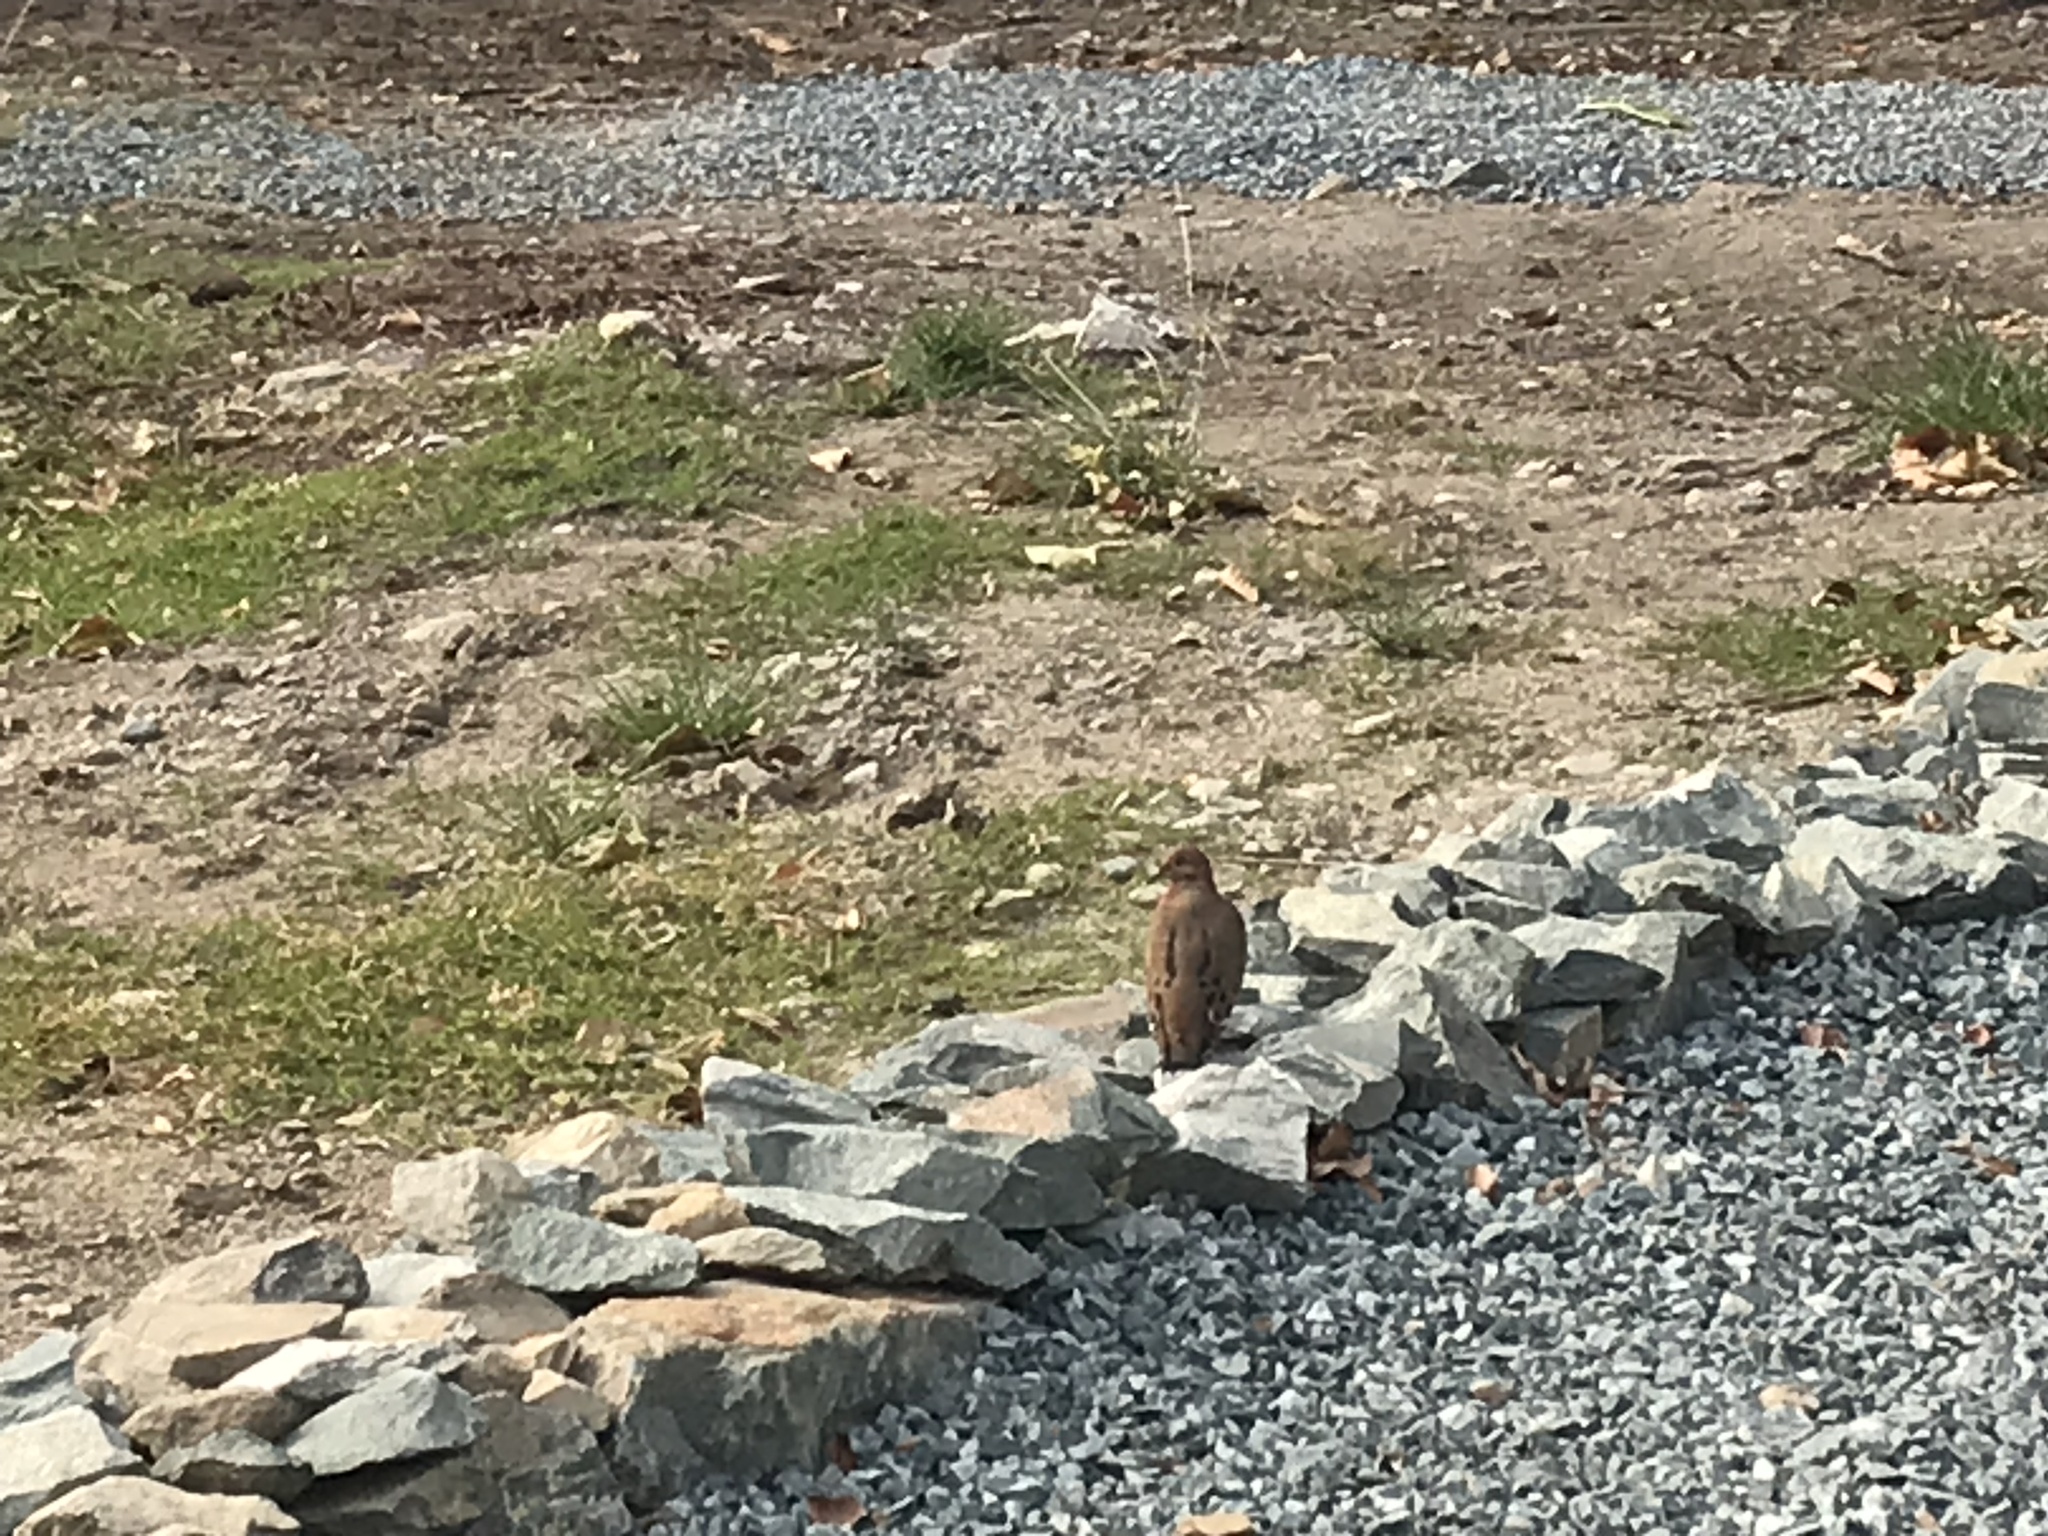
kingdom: Animalia
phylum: Chordata
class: Aves
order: Columbiformes
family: Columbidae
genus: Zenaida
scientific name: Zenaida aurita
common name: Zenaida dove
